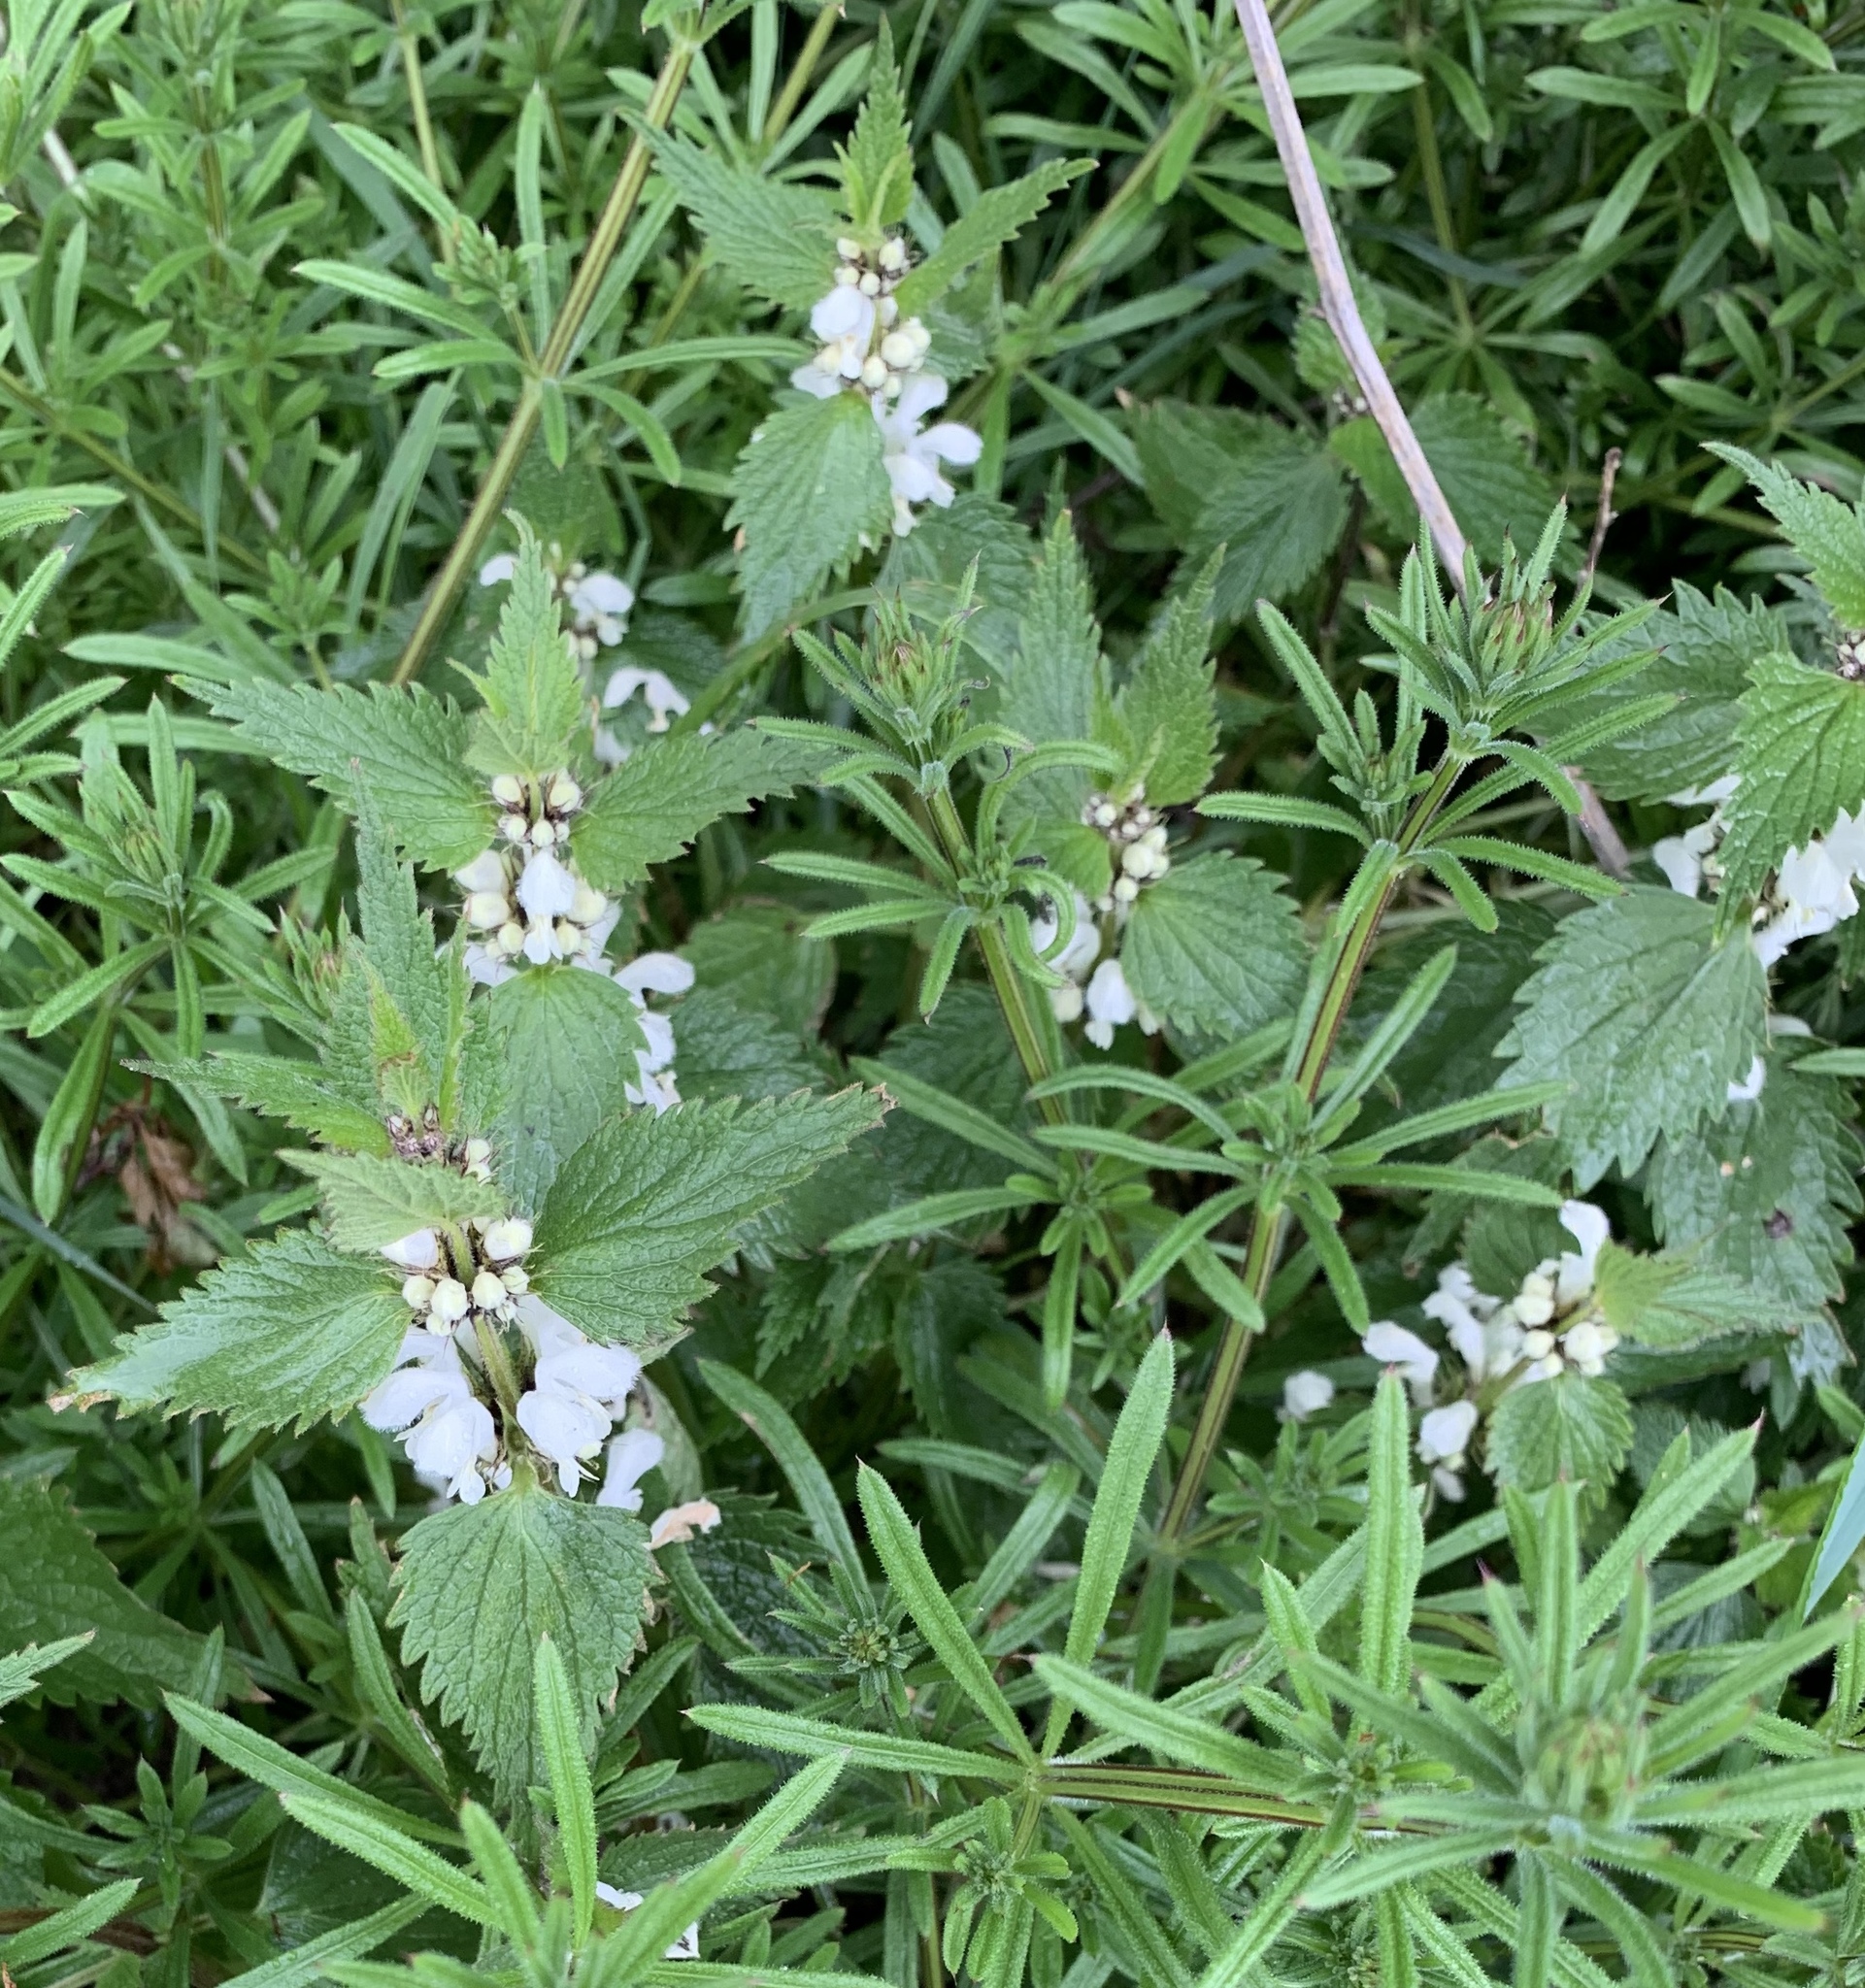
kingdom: Plantae
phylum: Tracheophyta
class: Magnoliopsida
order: Lamiales
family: Lamiaceae
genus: Lamium
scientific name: Lamium album
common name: White dead-nettle
